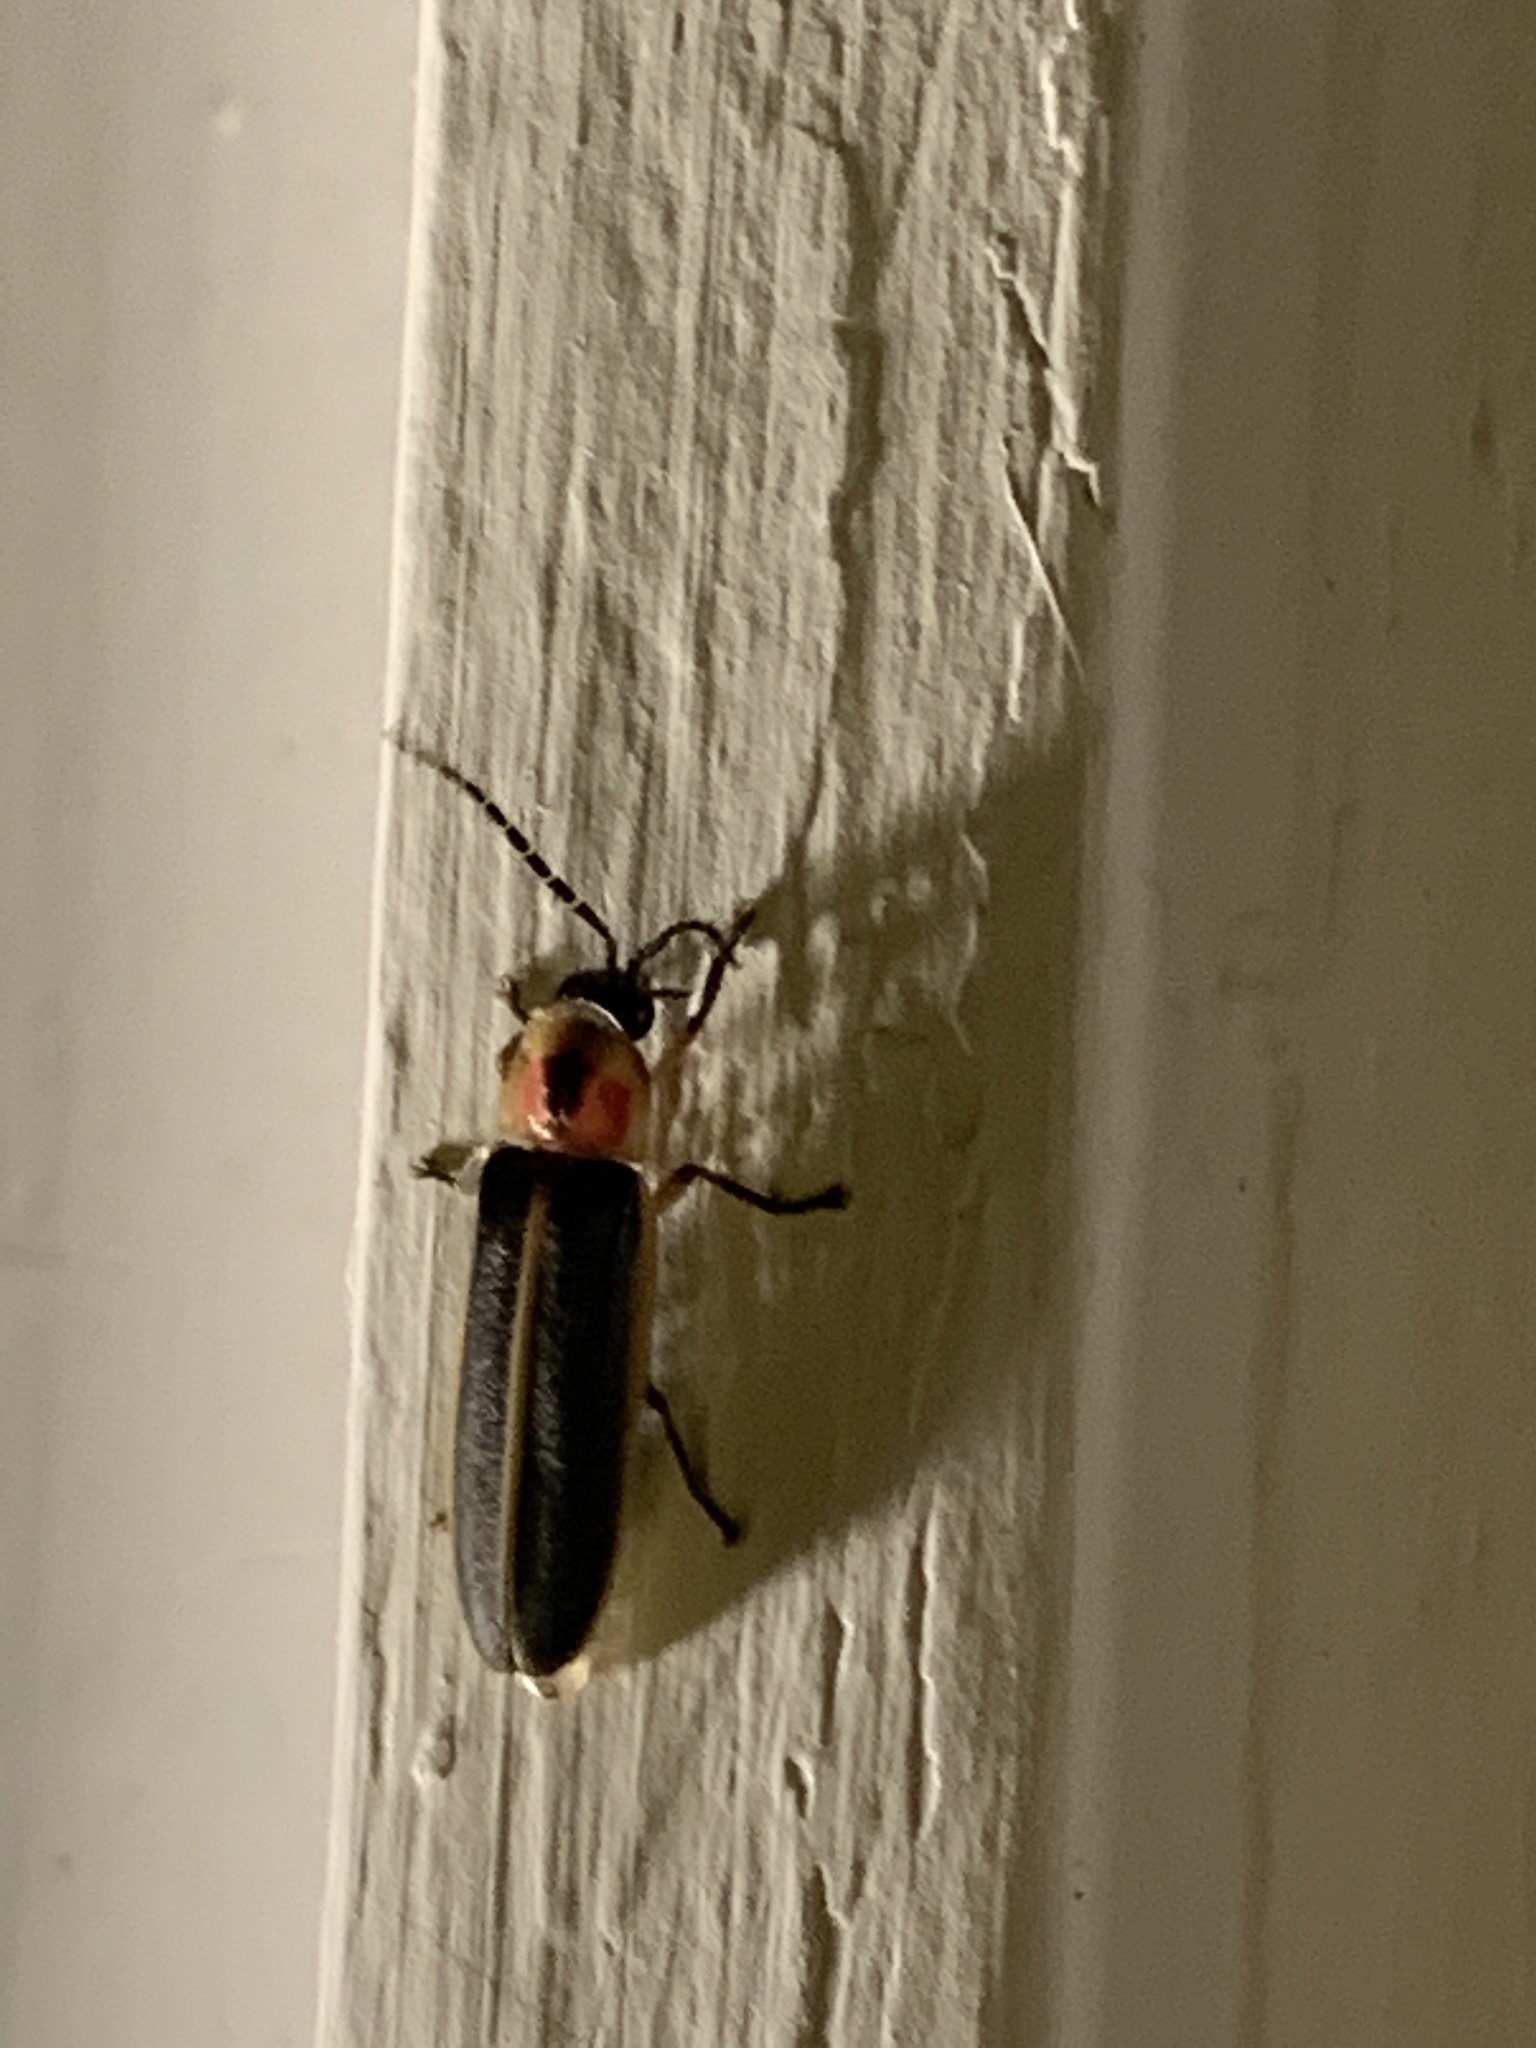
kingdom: Animalia
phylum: Arthropoda
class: Insecta
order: Coleoptera
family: Lampyridae
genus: Photinus
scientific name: Photinus pyralis
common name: Big dipper firefly
